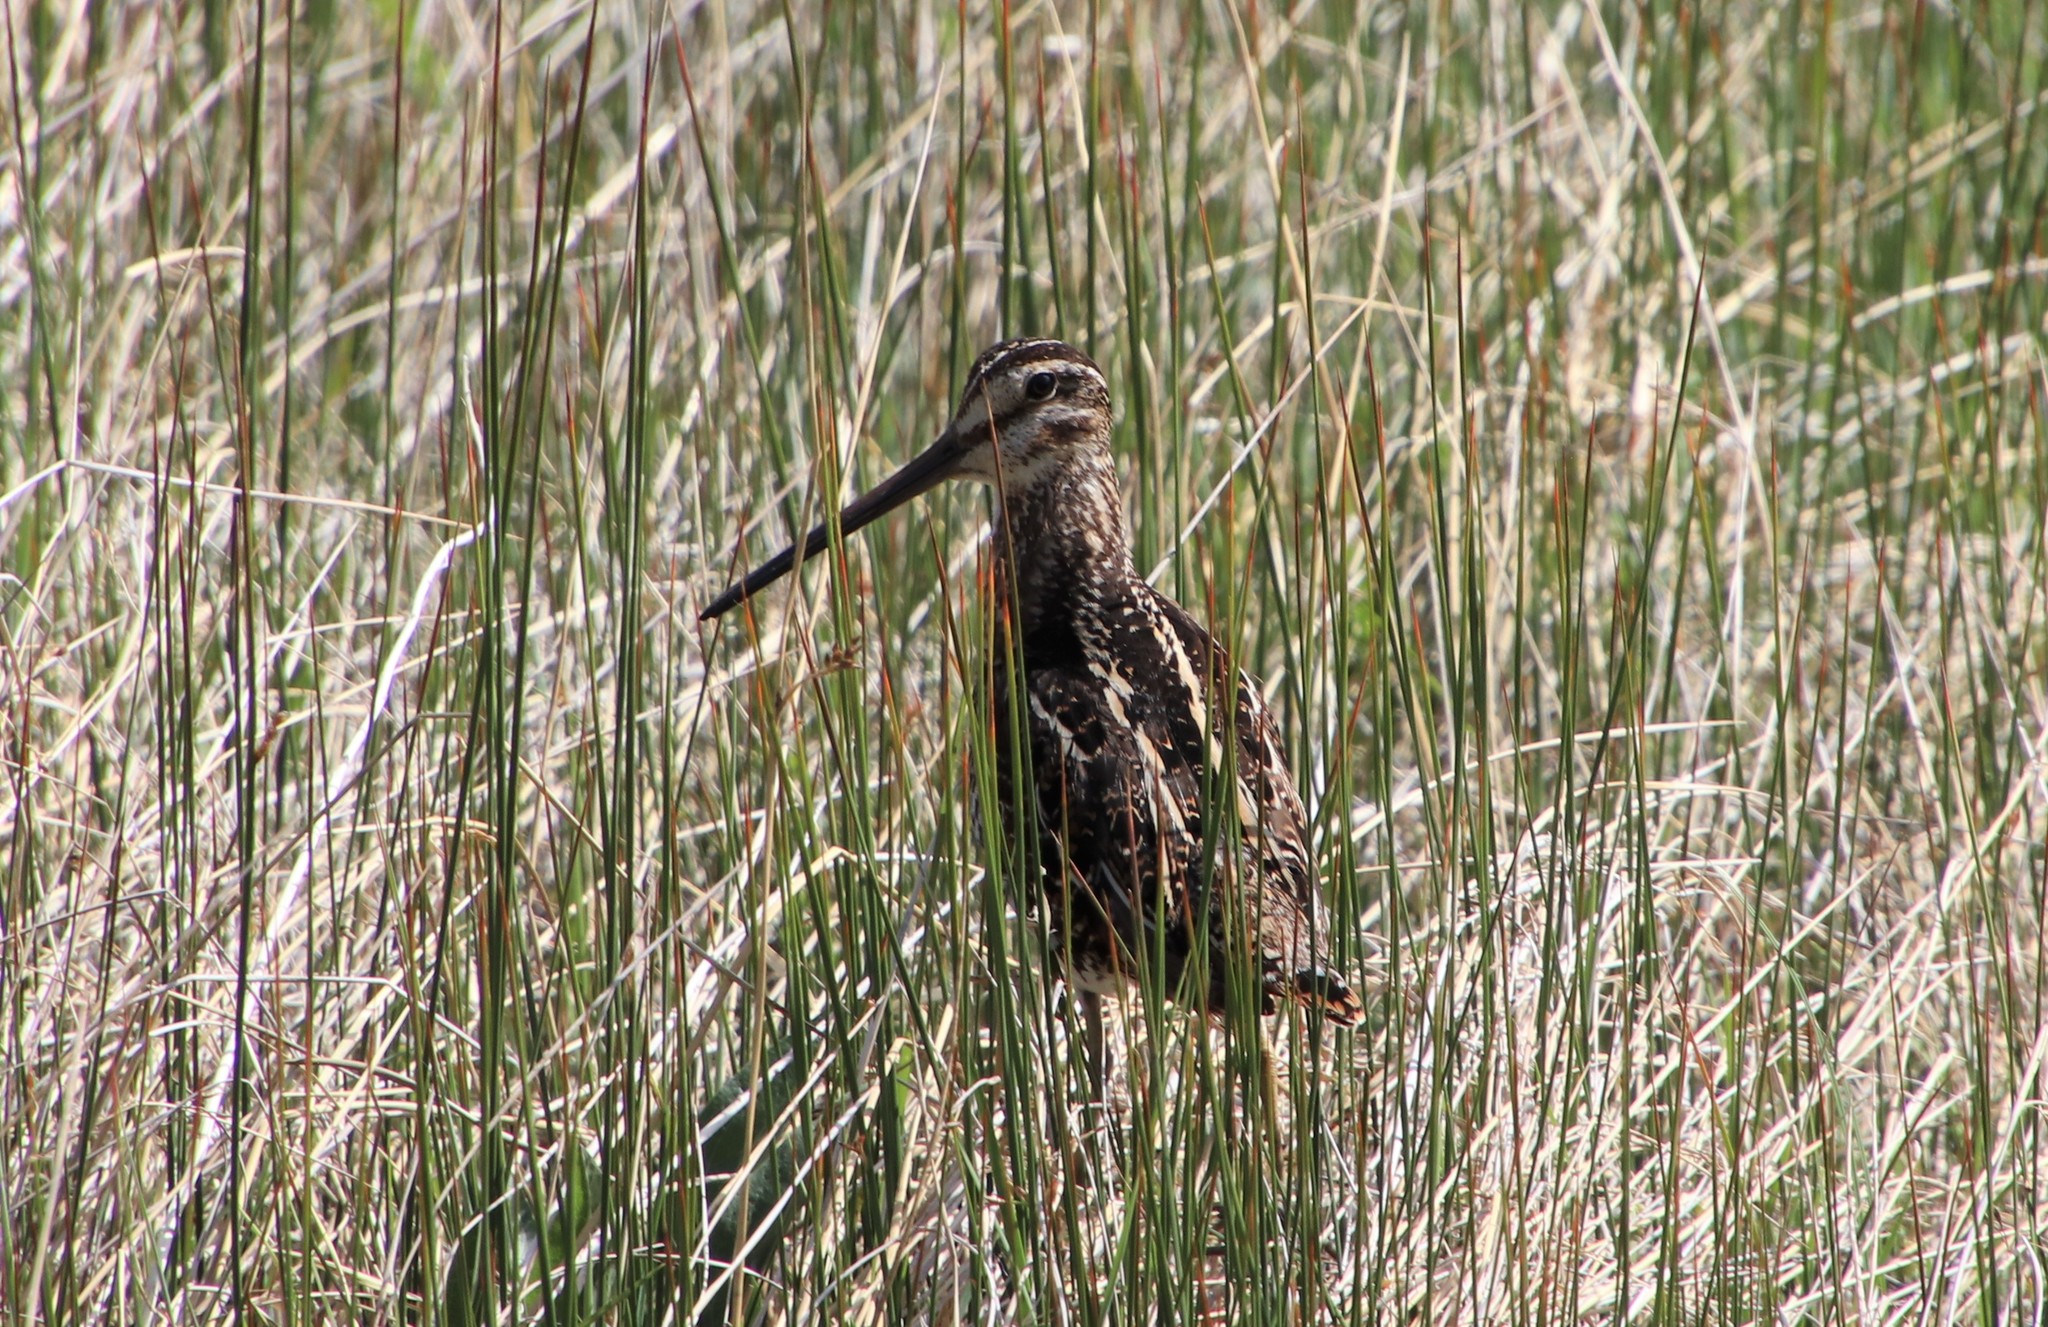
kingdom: Animalia
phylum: Chordata
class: Aves
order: Charadriiformes
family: Scolopacidae
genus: Gallinago
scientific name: Gallinago delicata
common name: Wilson's snipe
